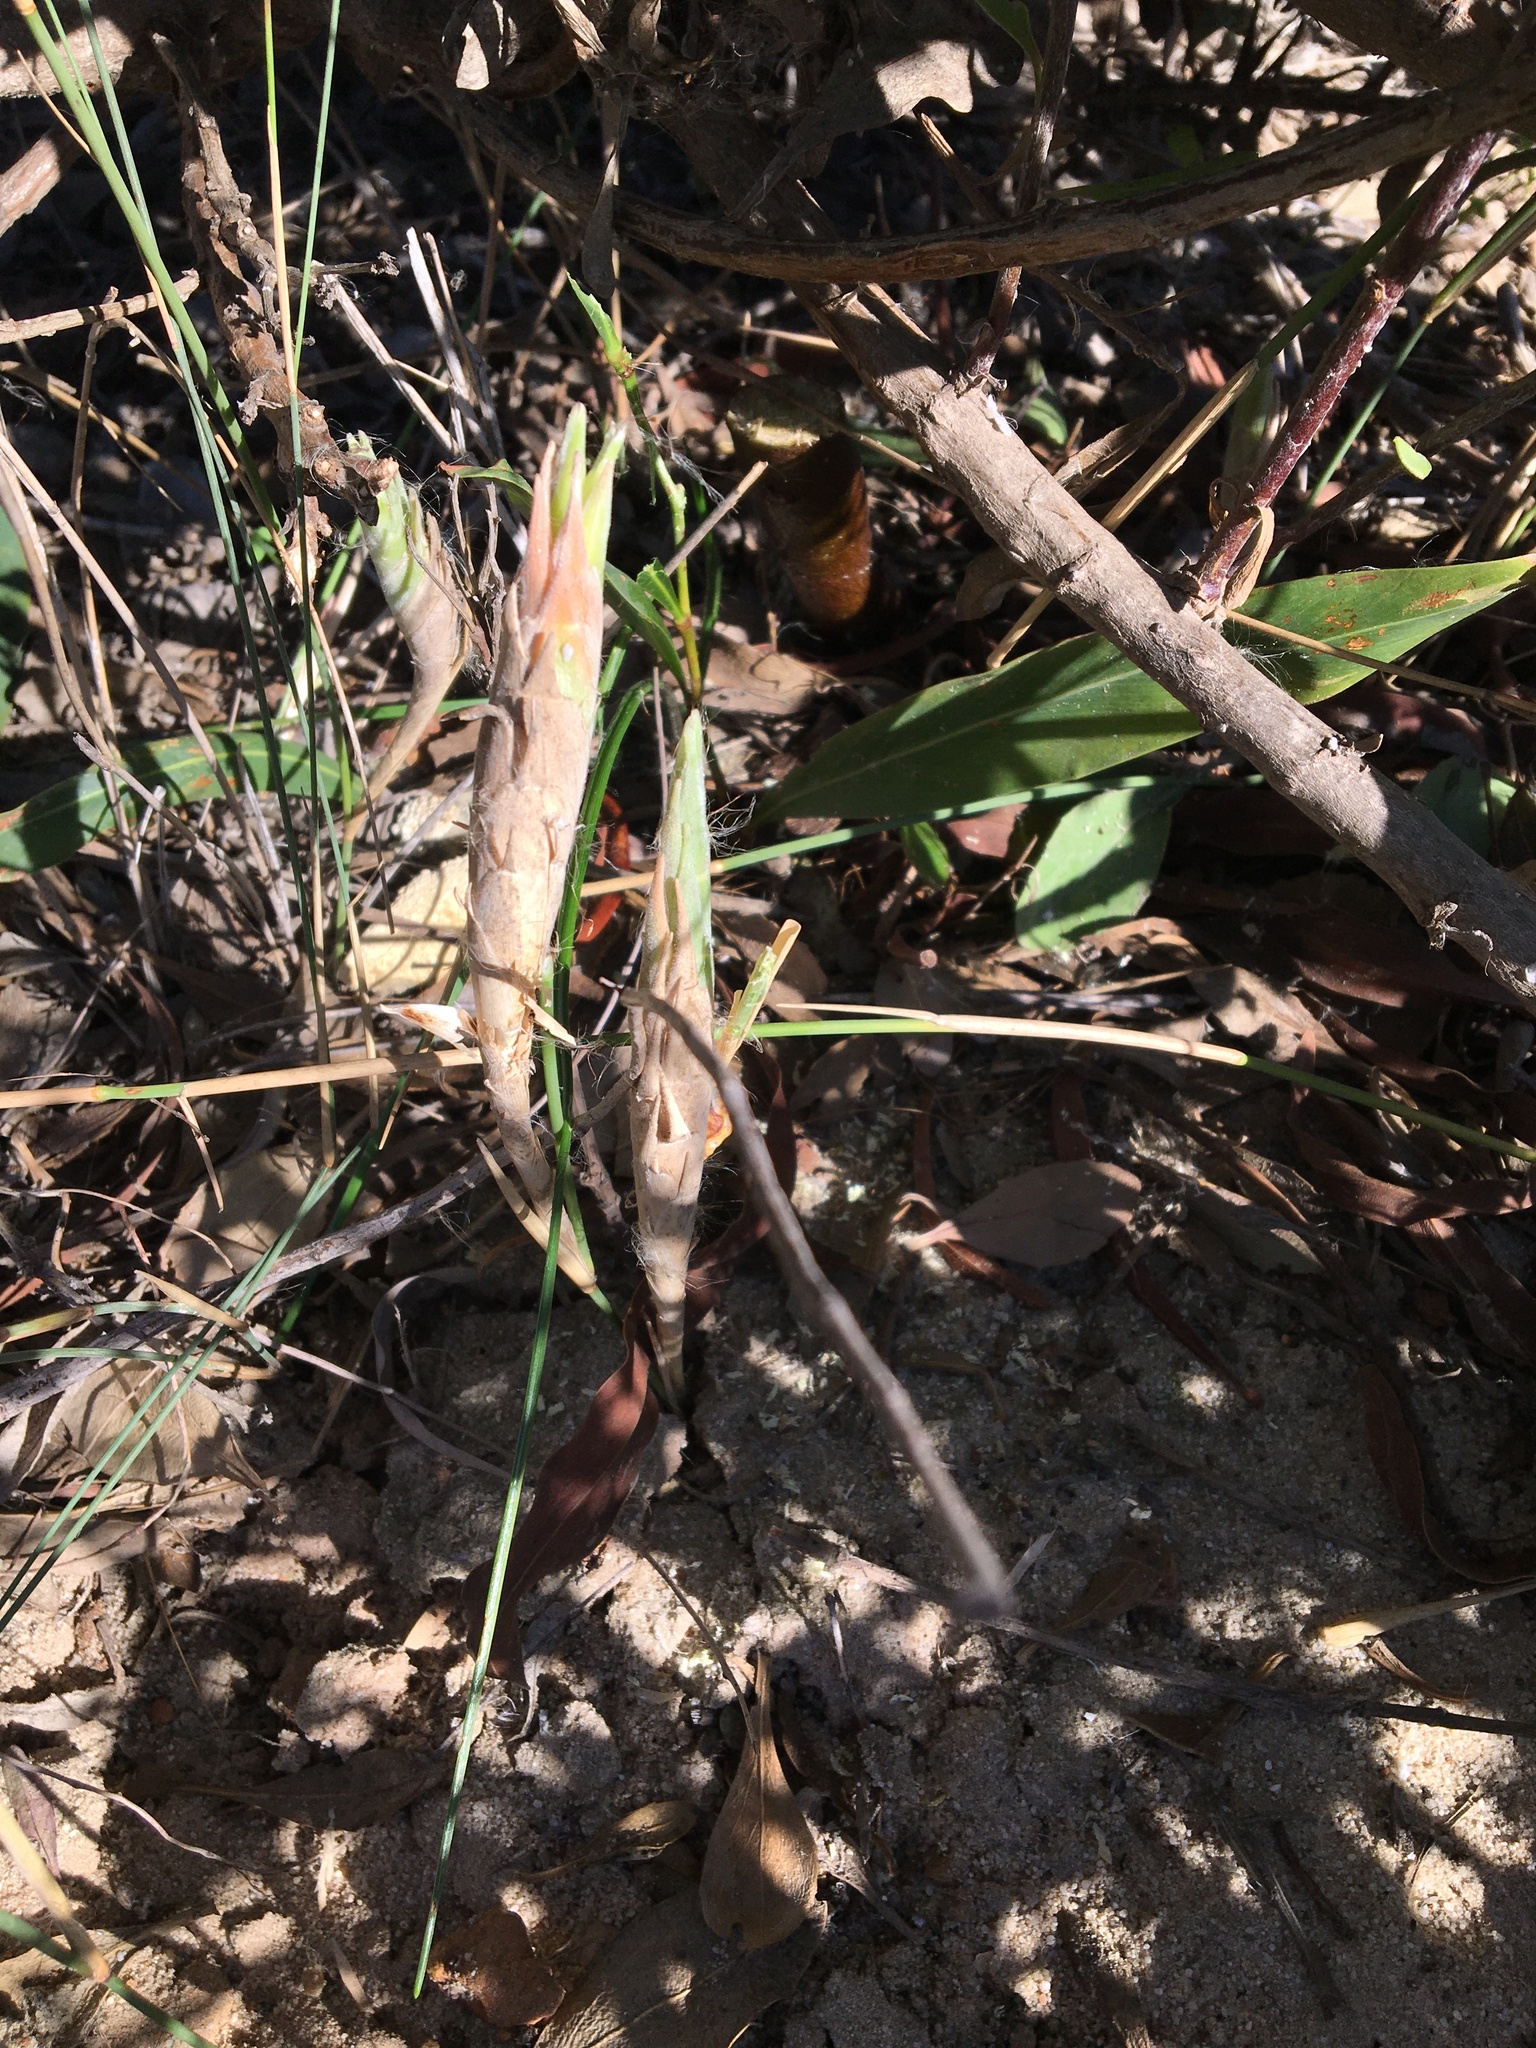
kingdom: Plantae
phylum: Tracheophyta
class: Liliopsida
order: Poales
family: Poaceae
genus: Ehrharta
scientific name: Ehrharta villosa
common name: Pyp grass
